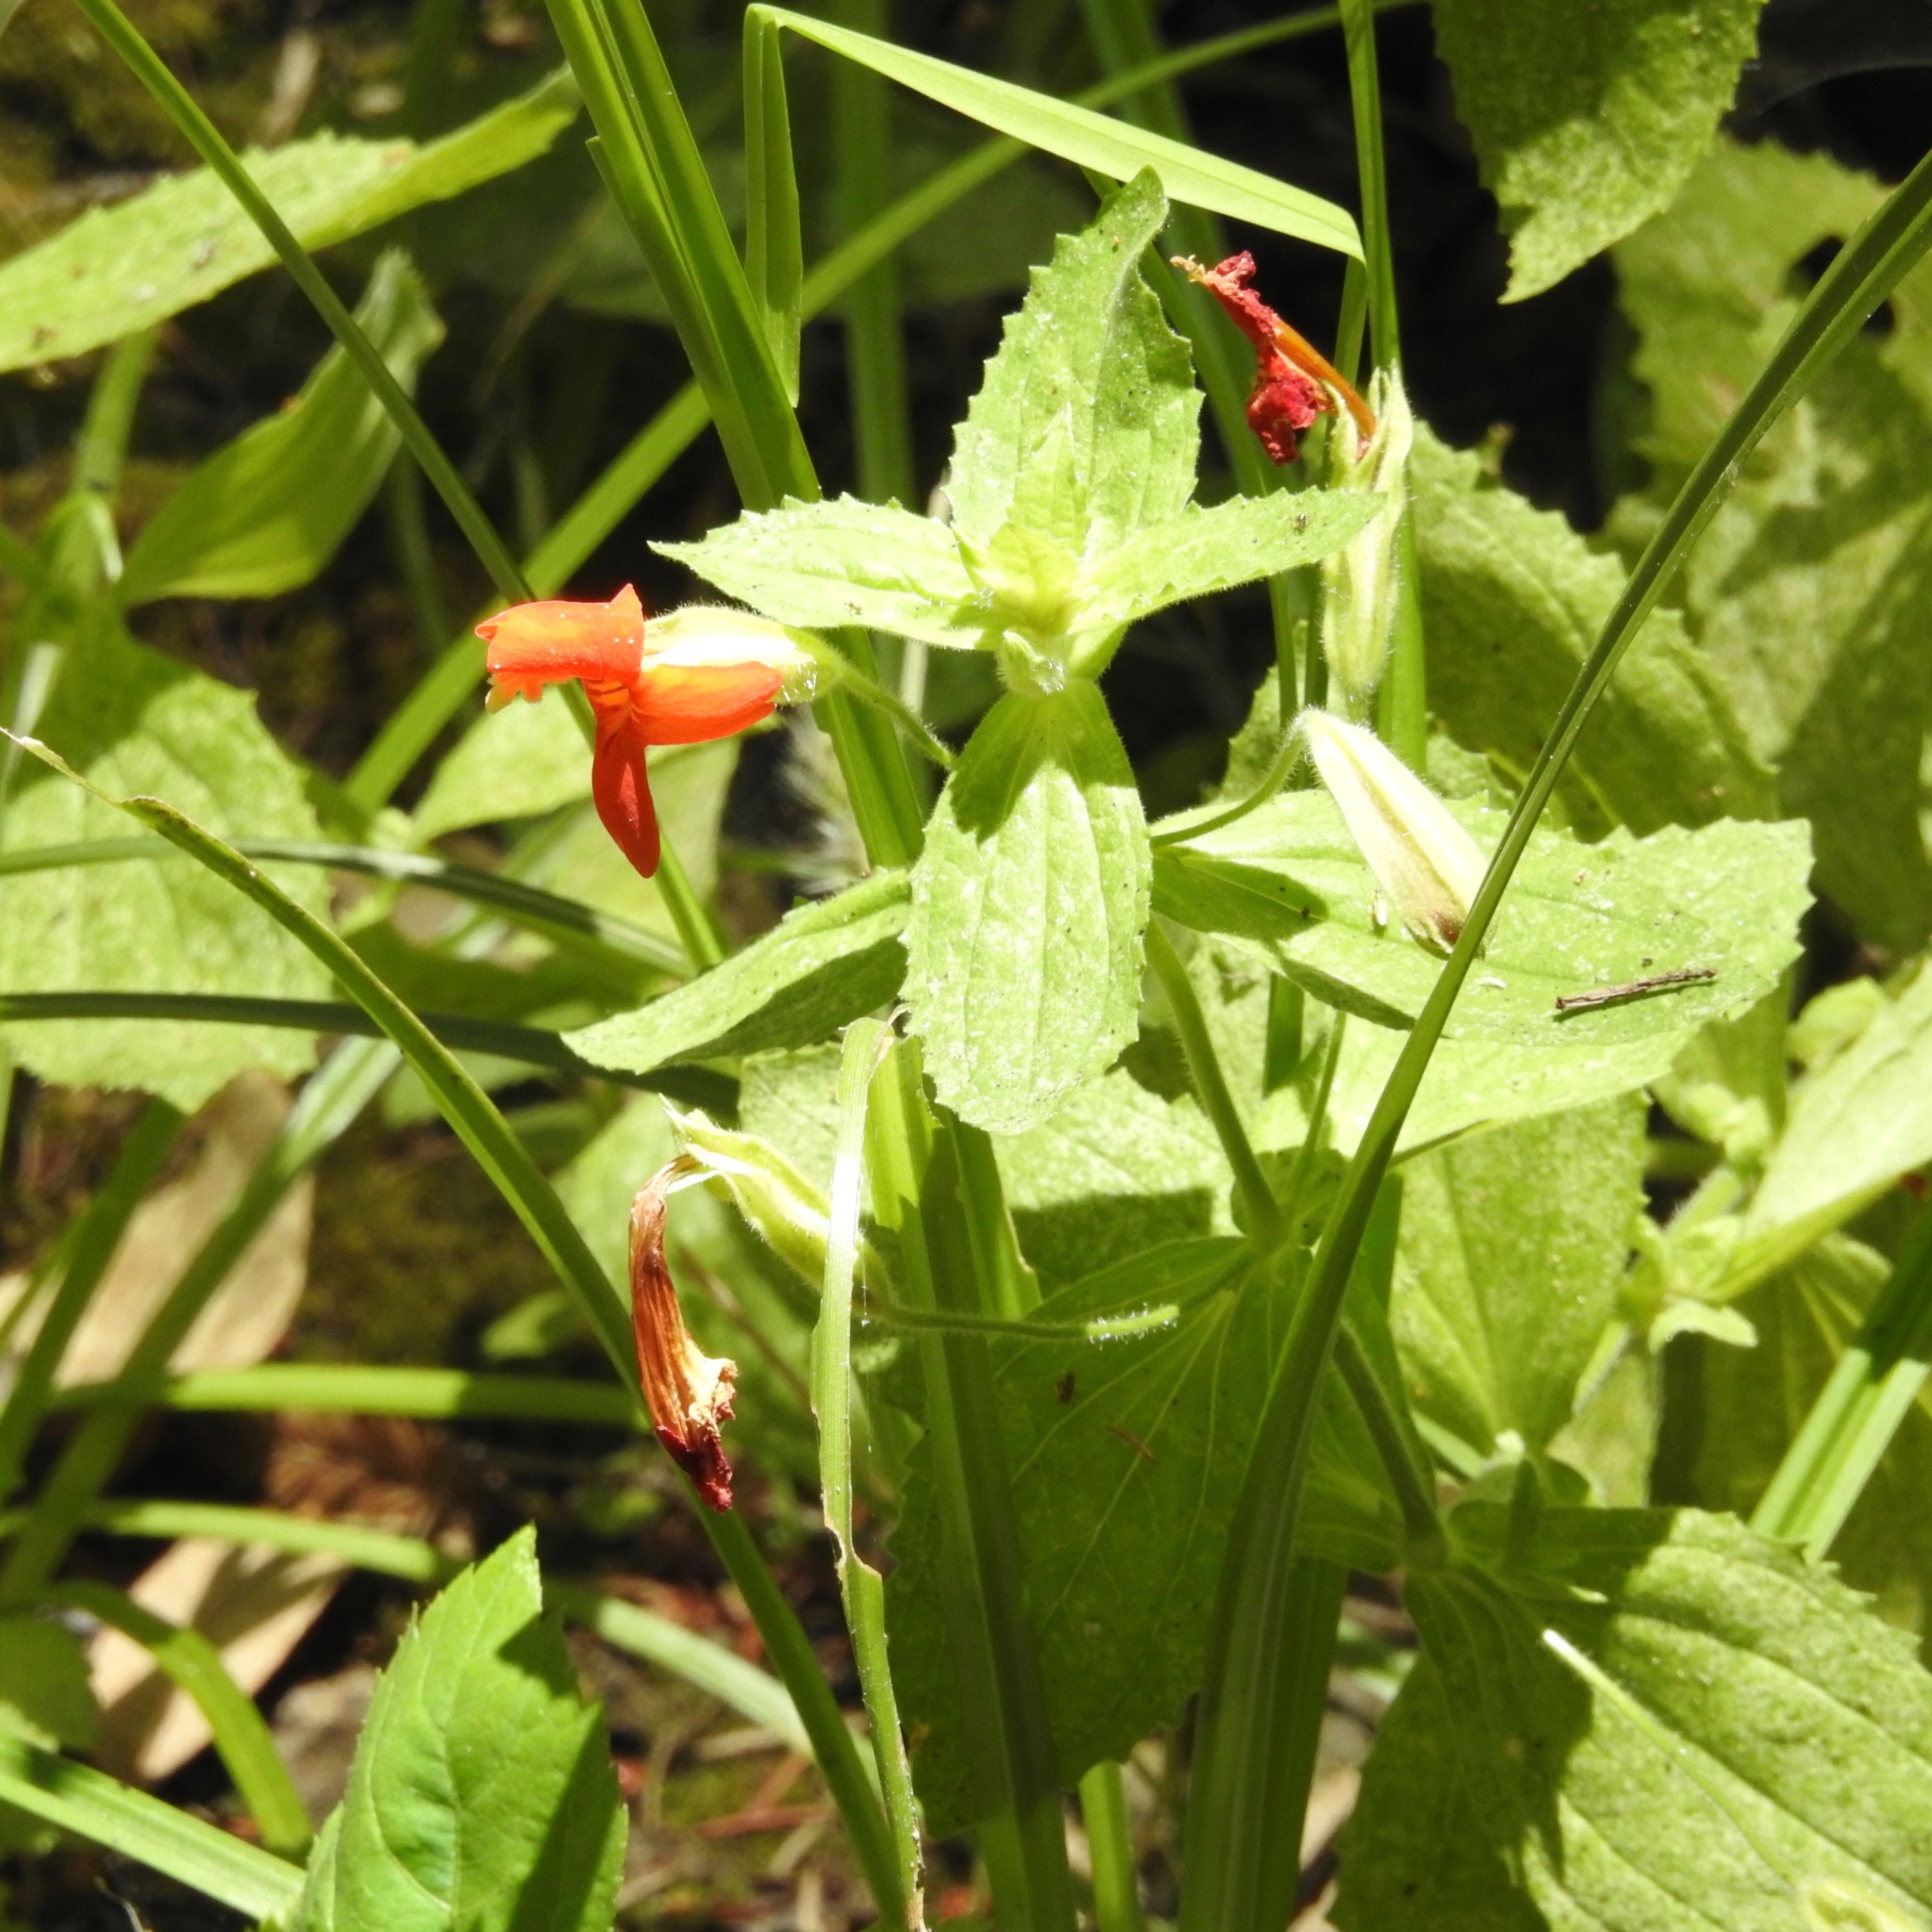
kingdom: Plantae
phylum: Tracheophyta
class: Magnoliopsida
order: Lamiales
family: Phrymaceae
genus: Erythranthe
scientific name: Erythranthe cardinalis
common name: Scarlet monkey-flower
